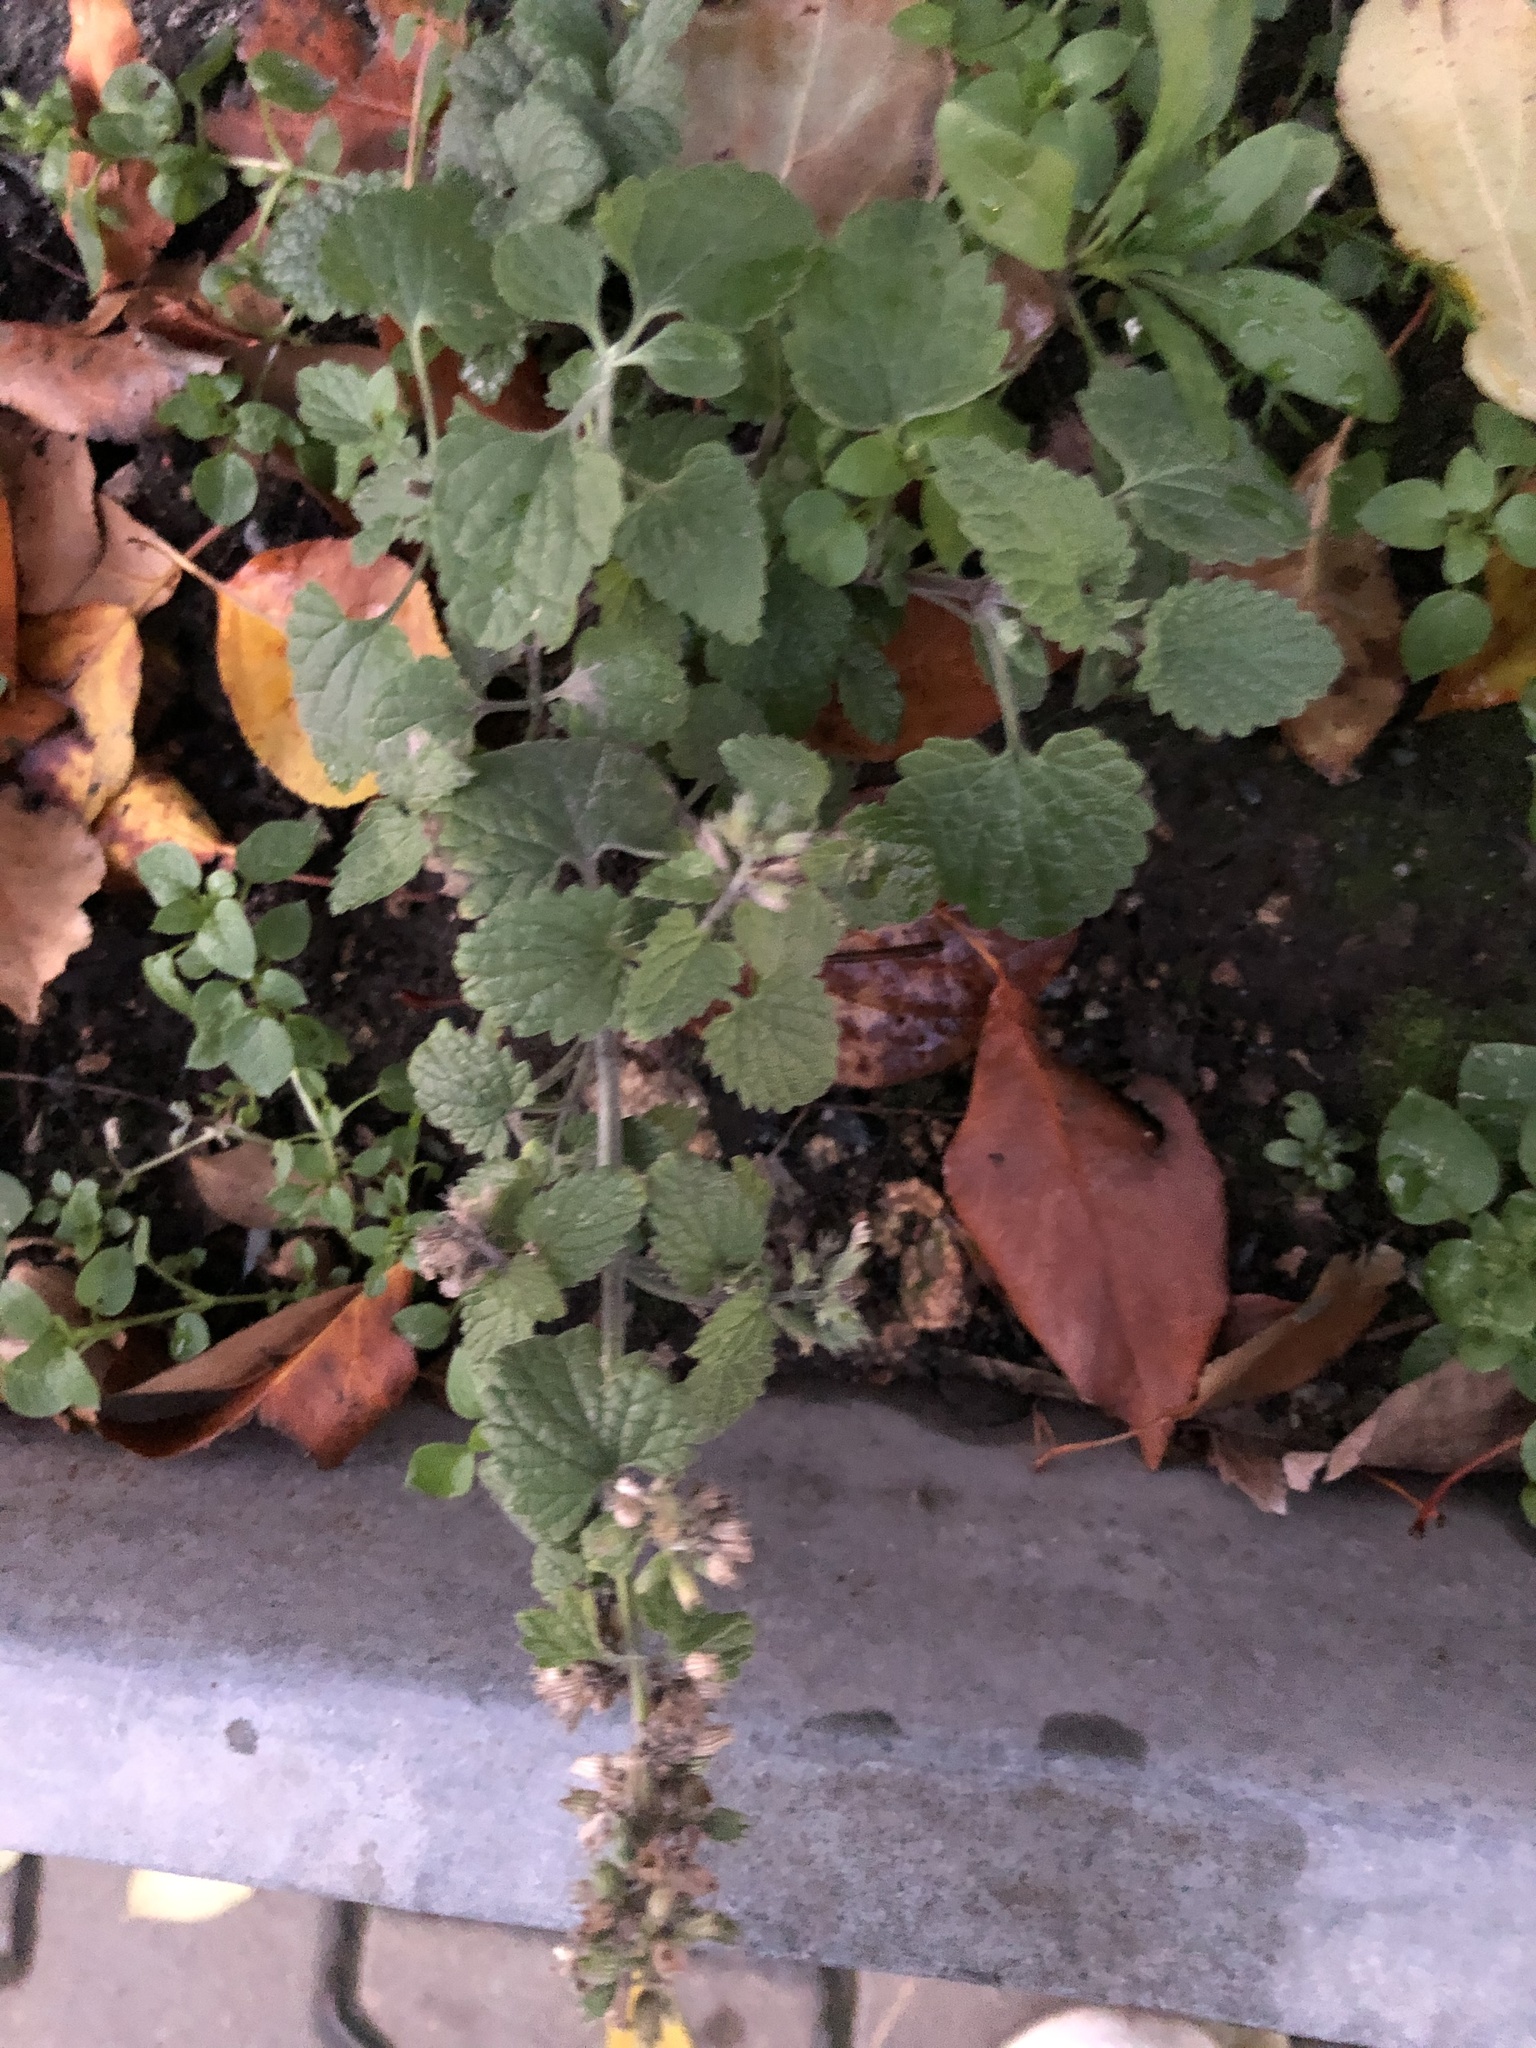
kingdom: Plantae
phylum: Tracheophyta
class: Magnoliopsida
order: Lamiales
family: Lamiaceae
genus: Nepeta
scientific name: Nepeta cataria
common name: Catnip
